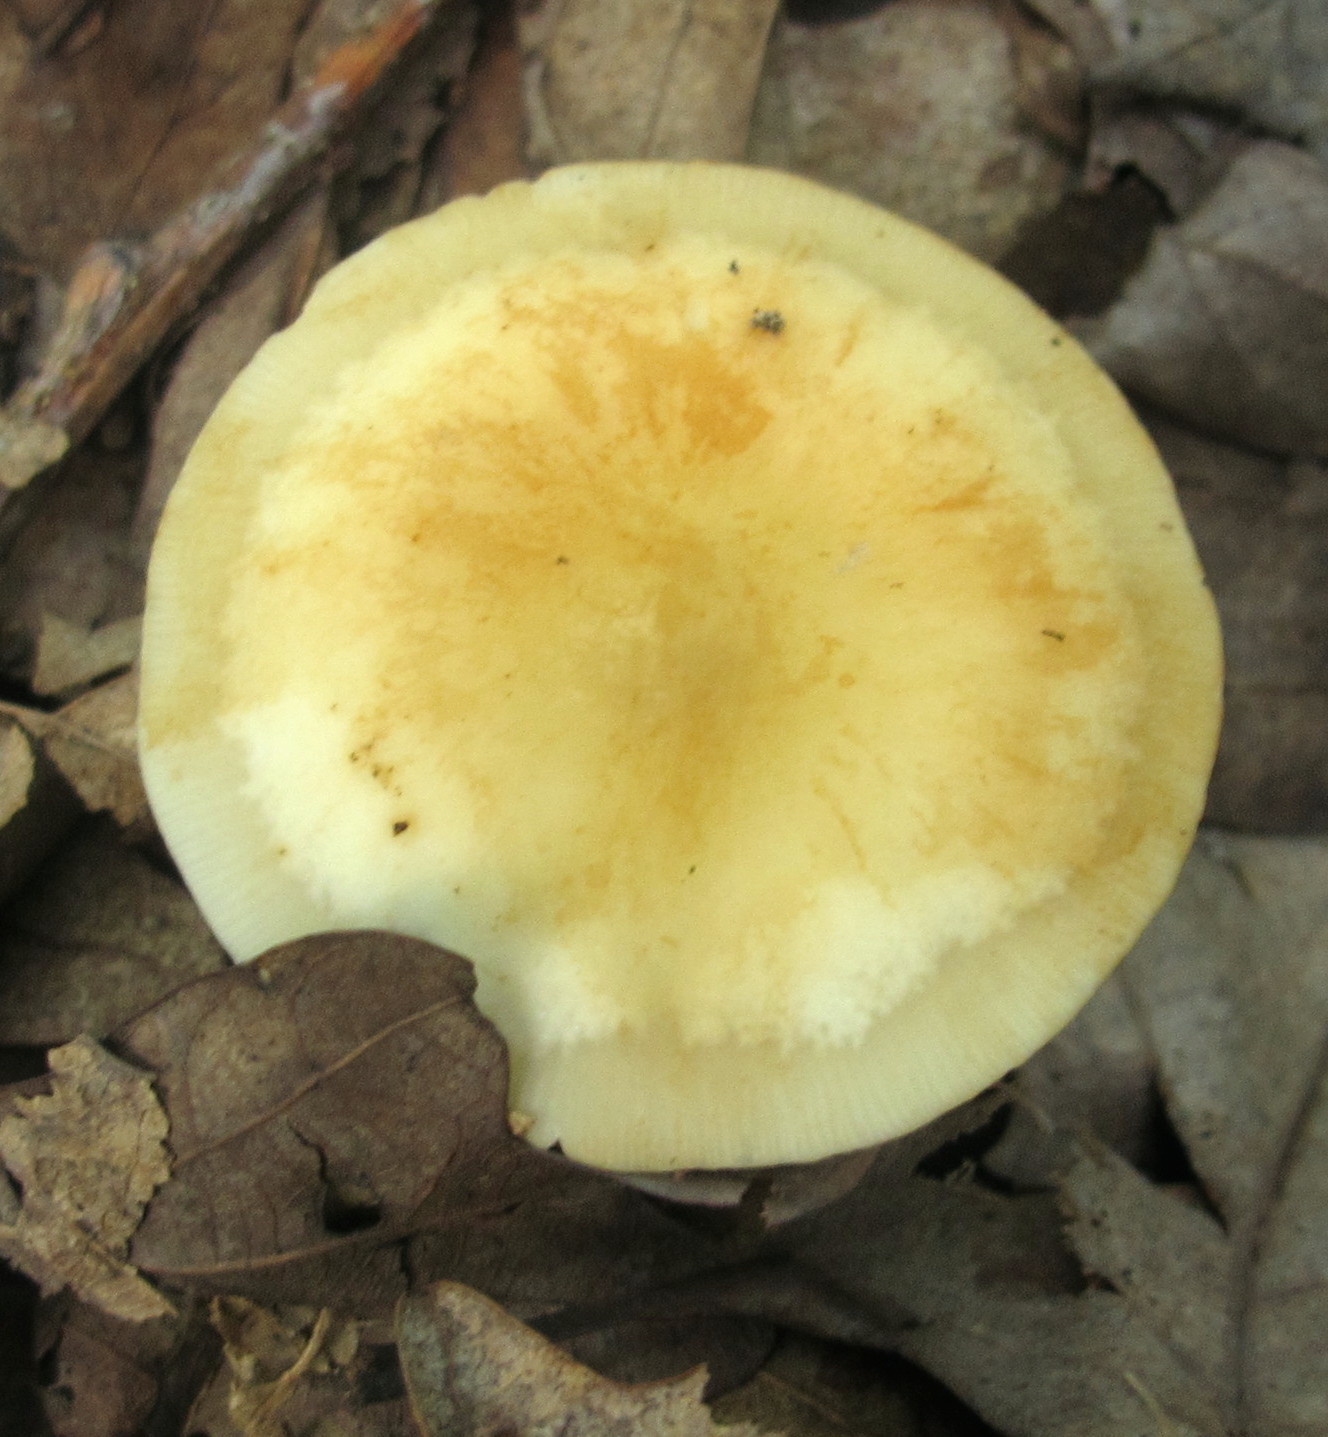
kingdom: Fungi
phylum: Basidiomycota
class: Agaricomycetes
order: Agaricales
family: Marasmiaceae
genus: Marasmius
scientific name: Marasmius strictipes
